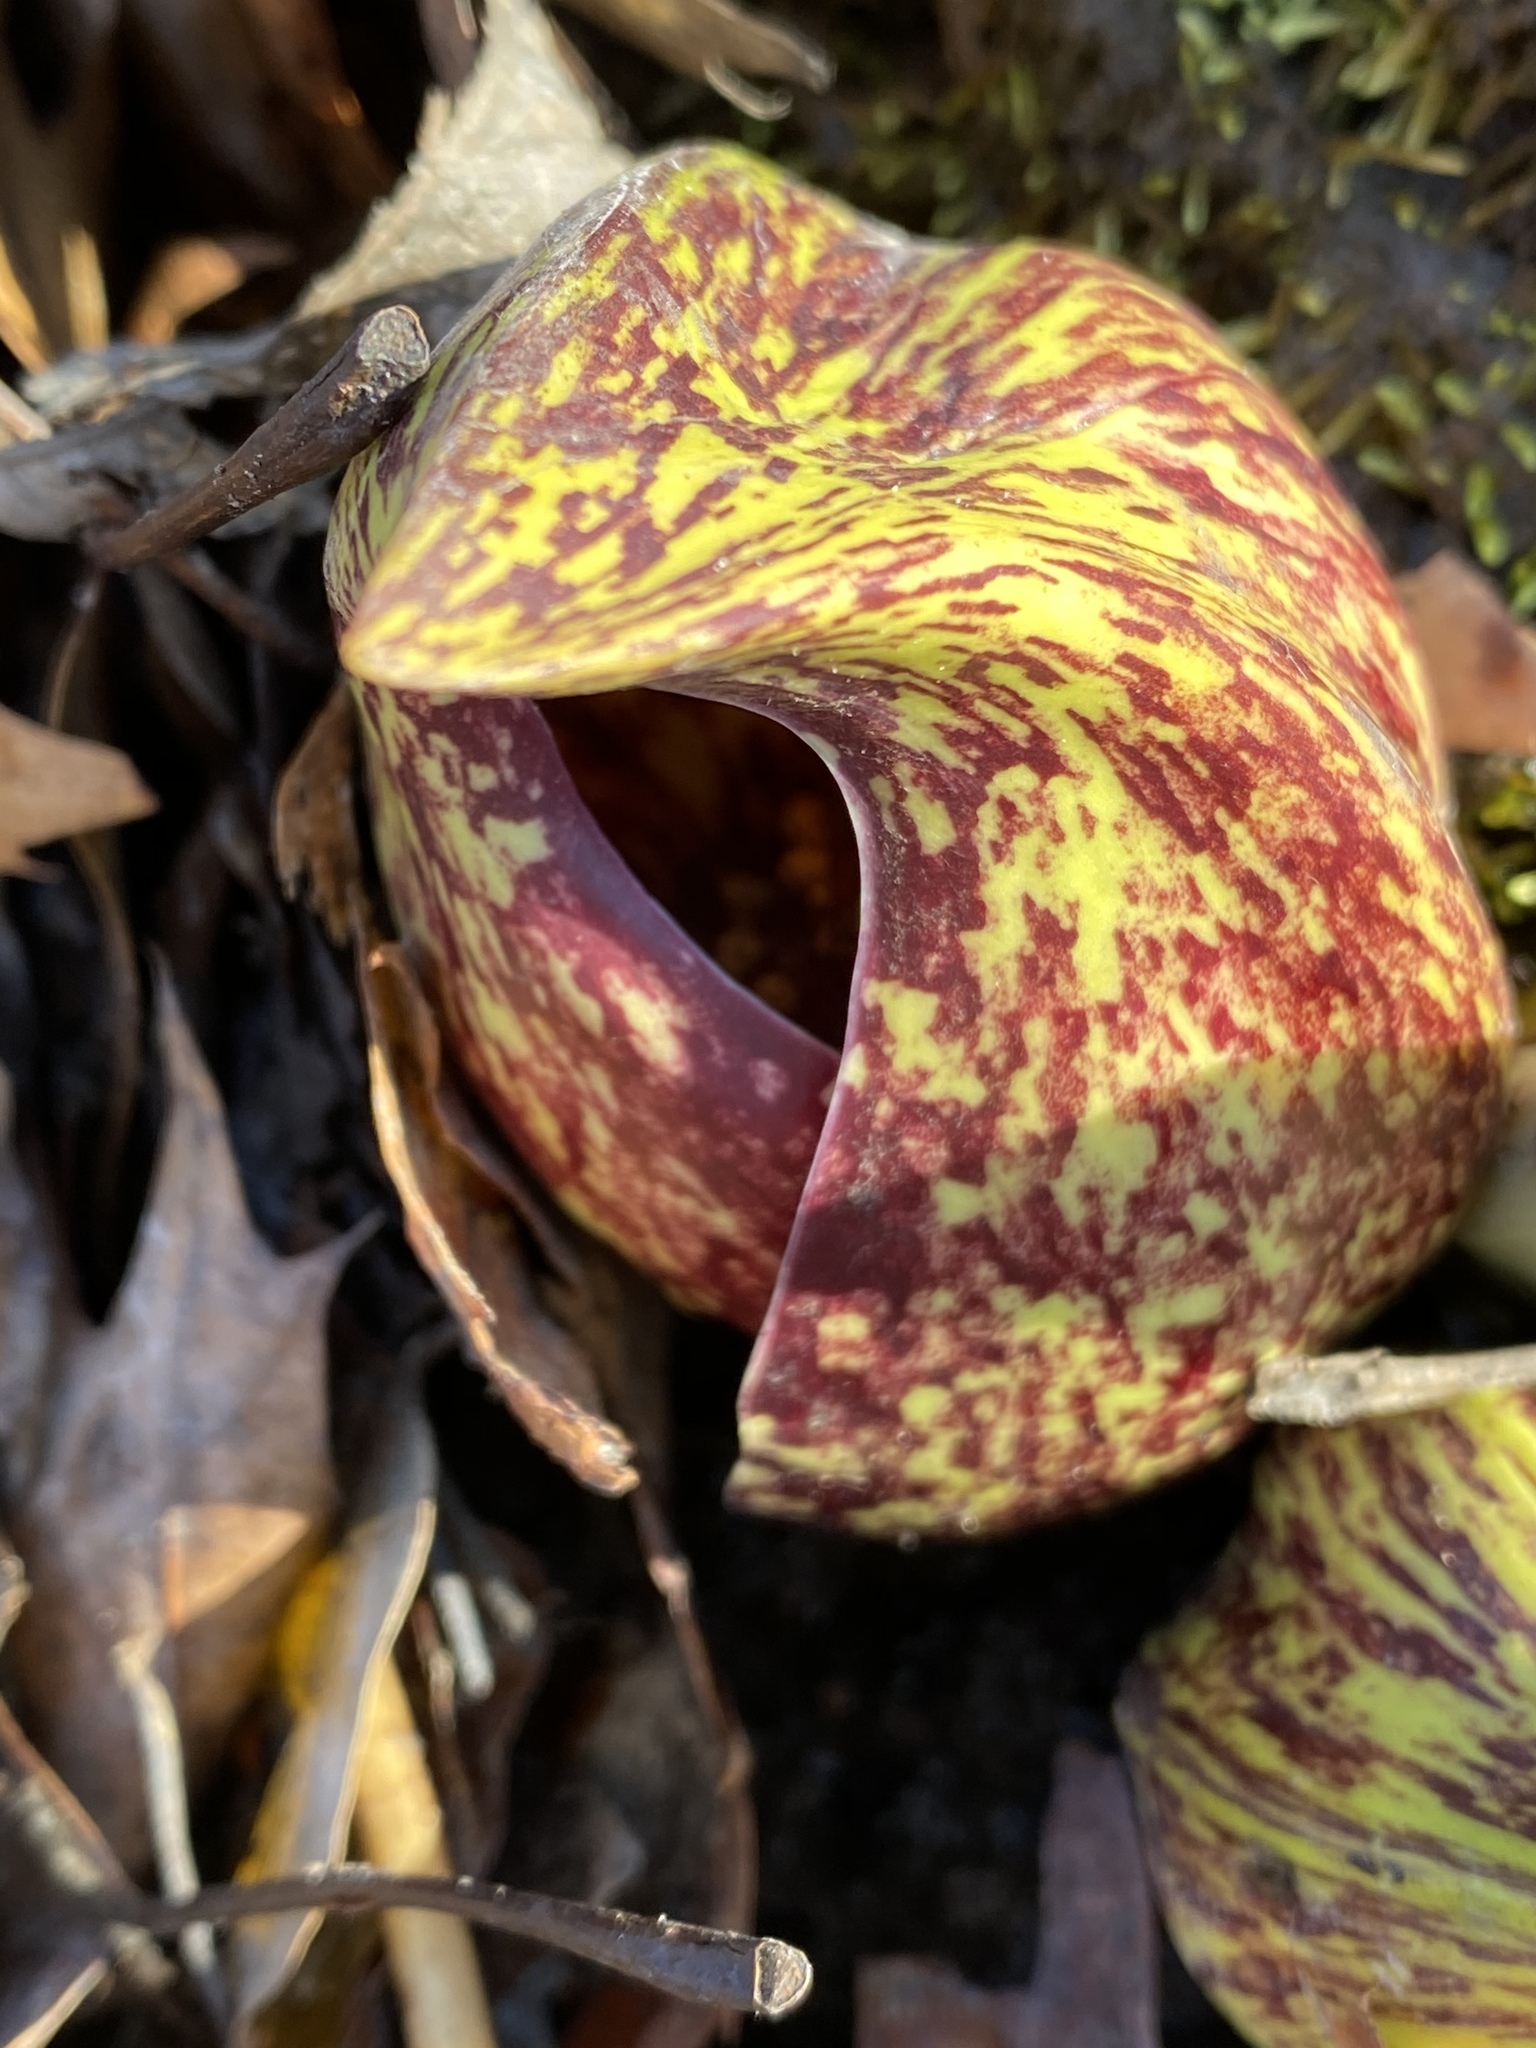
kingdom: Plantae
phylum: Tracheophyta
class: Liliopsida
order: Alismatales
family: Araceae
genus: Symplocarpus
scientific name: Symplocarpus foetidus
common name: Eastern skunk cabbage
